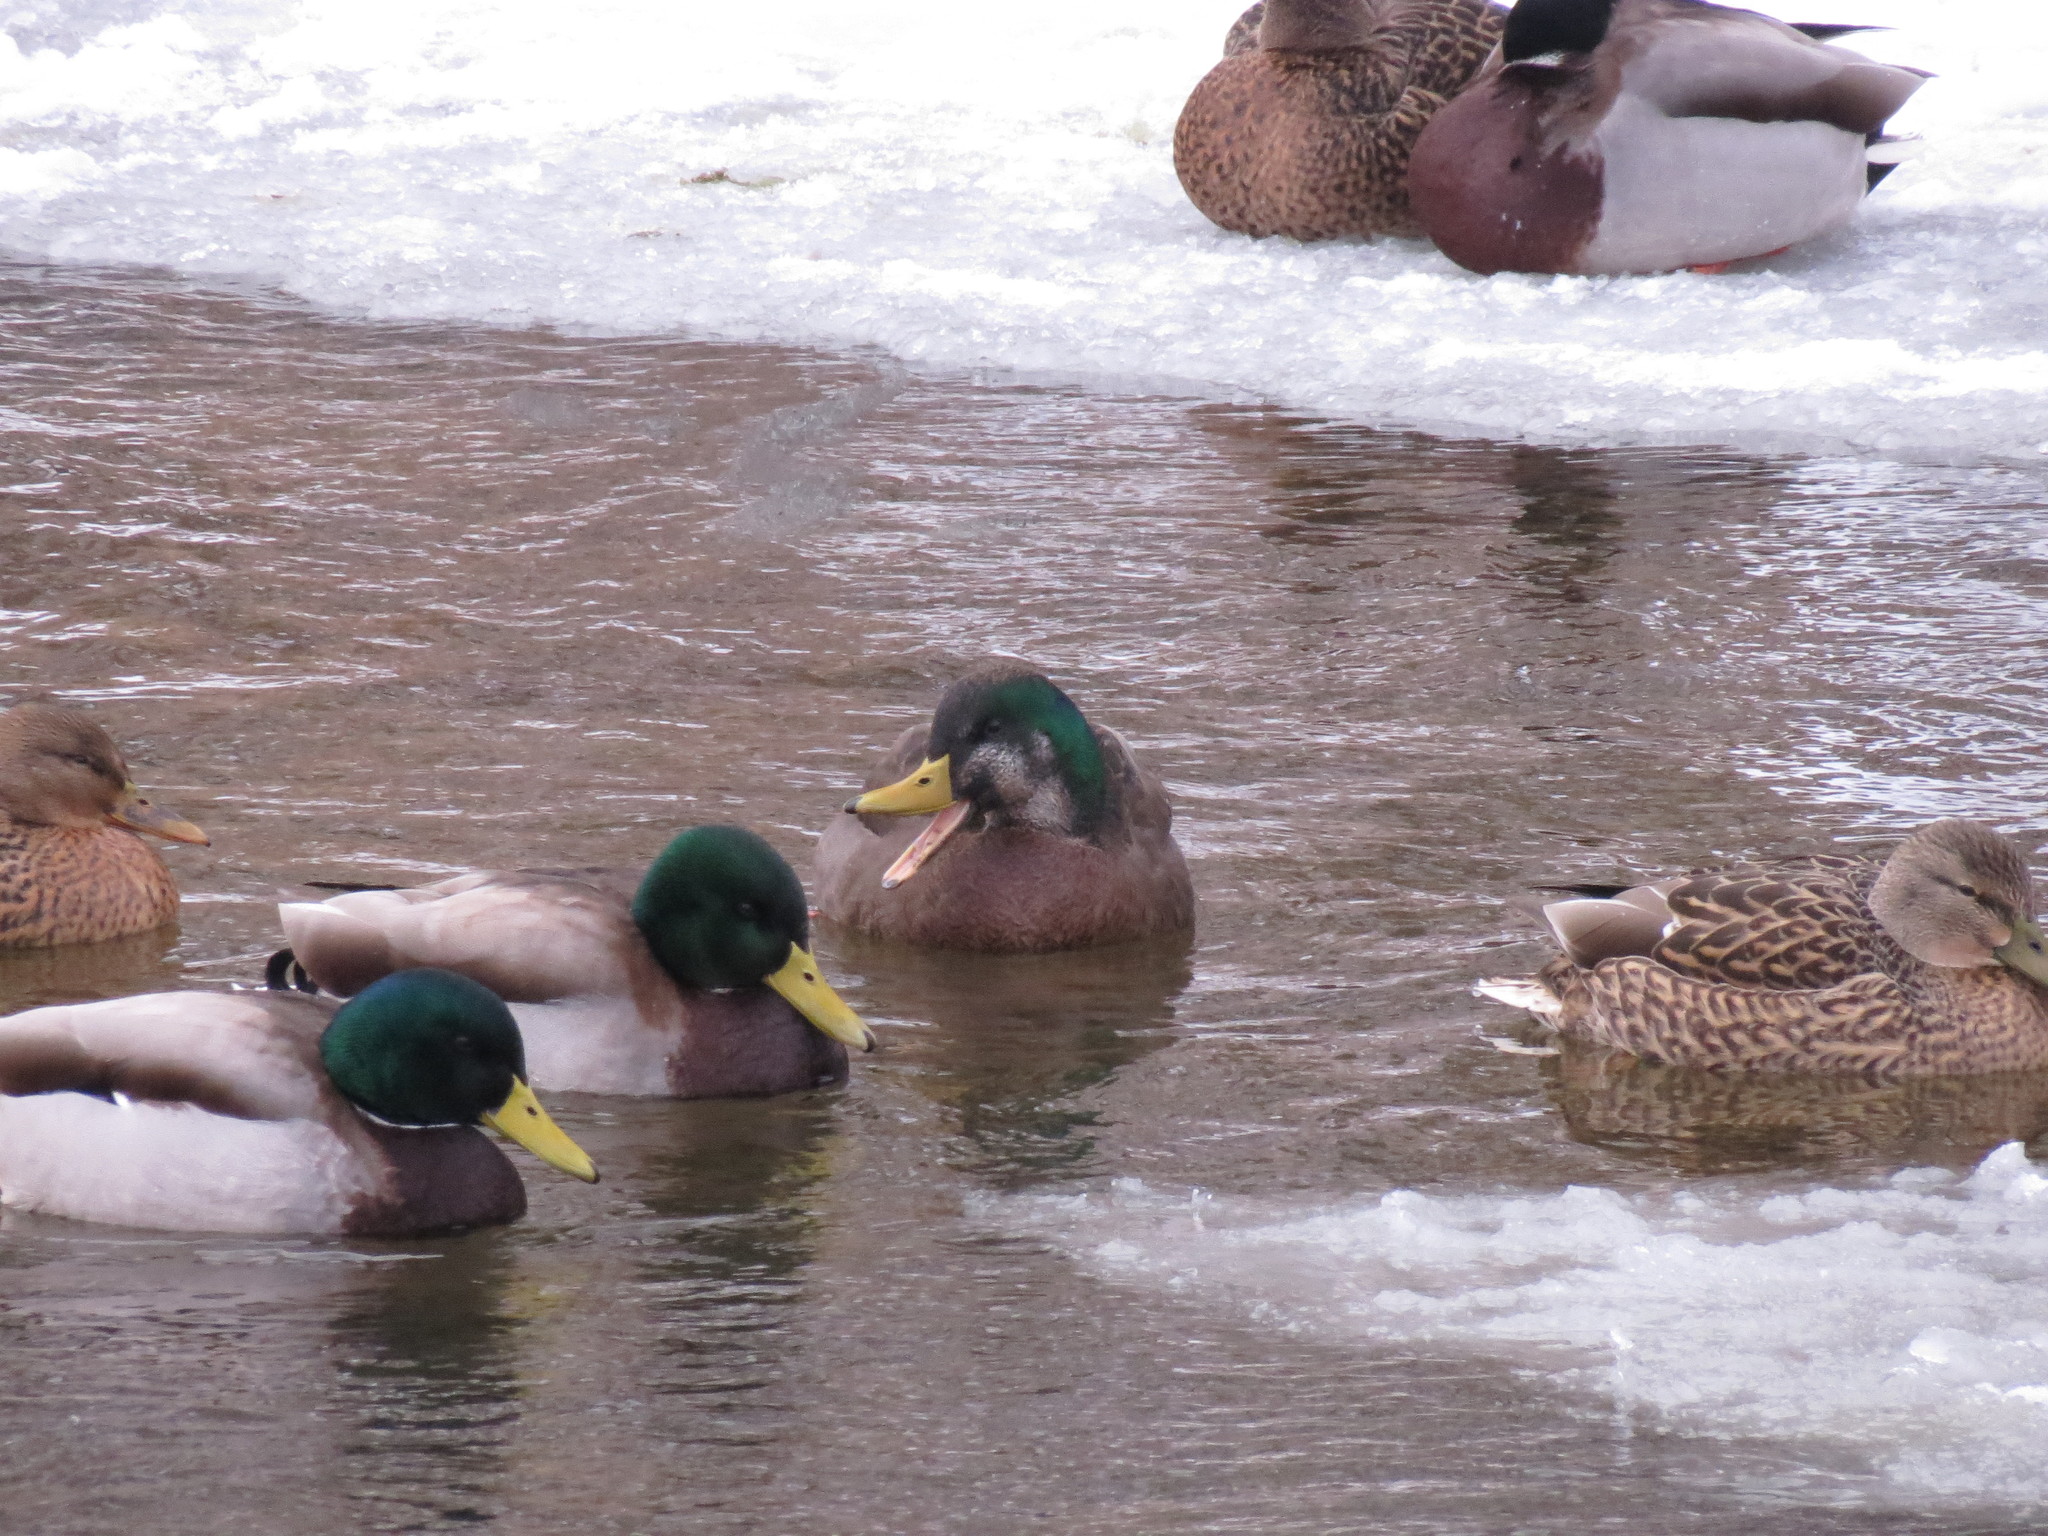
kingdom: Animalia
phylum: Chordata
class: Aves
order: Anseriformes
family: Anatidae
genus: Anas
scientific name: Anas
